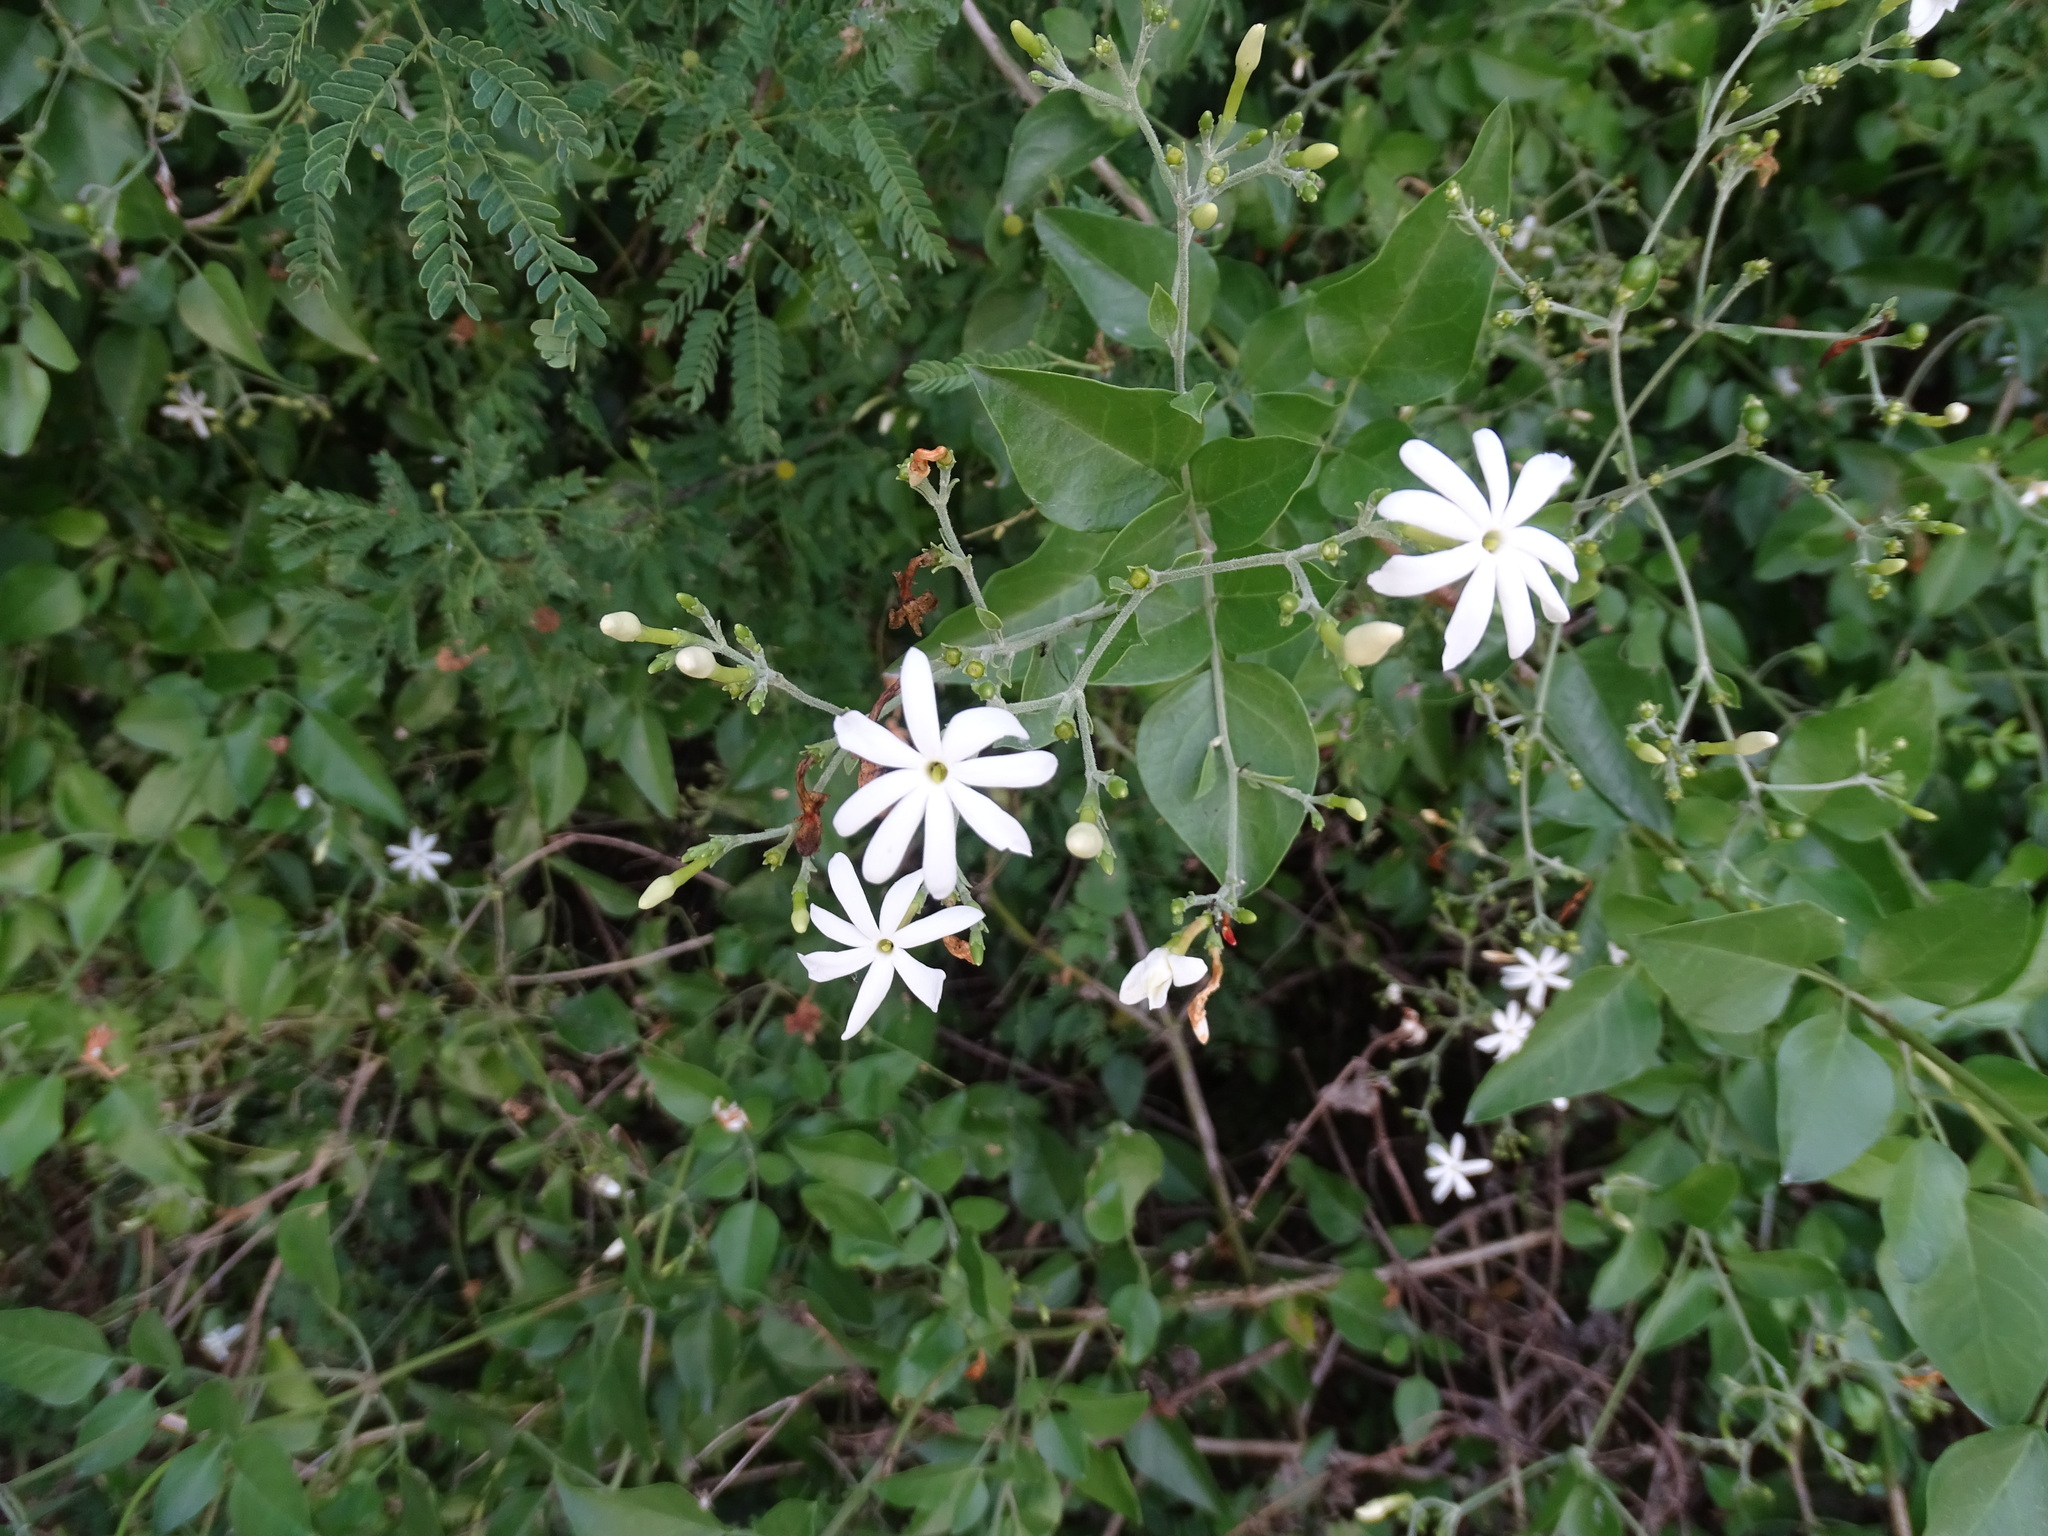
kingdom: Plantae
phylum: Tracheophyta
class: Magnoliopsida
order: Lamiales
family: Oleaceae
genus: Jasminum
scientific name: Jasminum fluminense
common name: Brazilian jasmine
